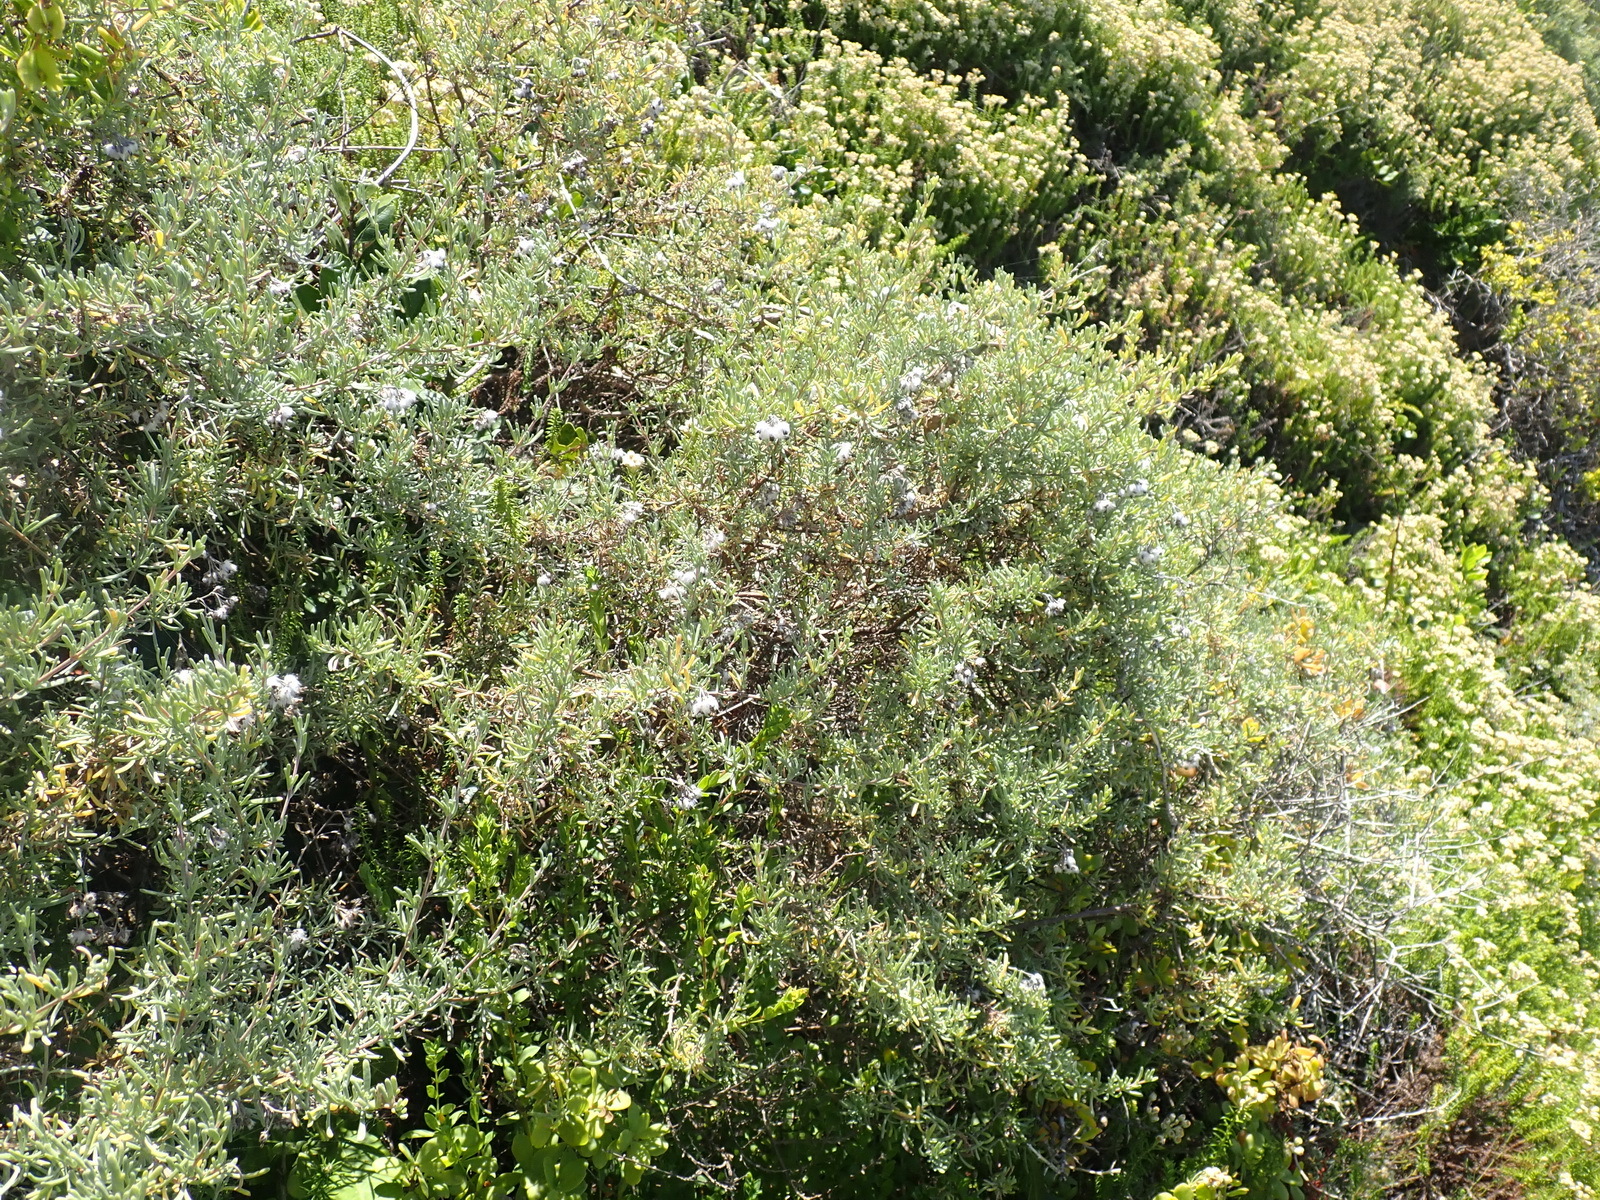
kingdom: Plantae
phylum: Tracheophyta
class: Magnoliopsida
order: Asterales
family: Asteraceae
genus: Eriocephalus
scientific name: Eriocephalus africanus
